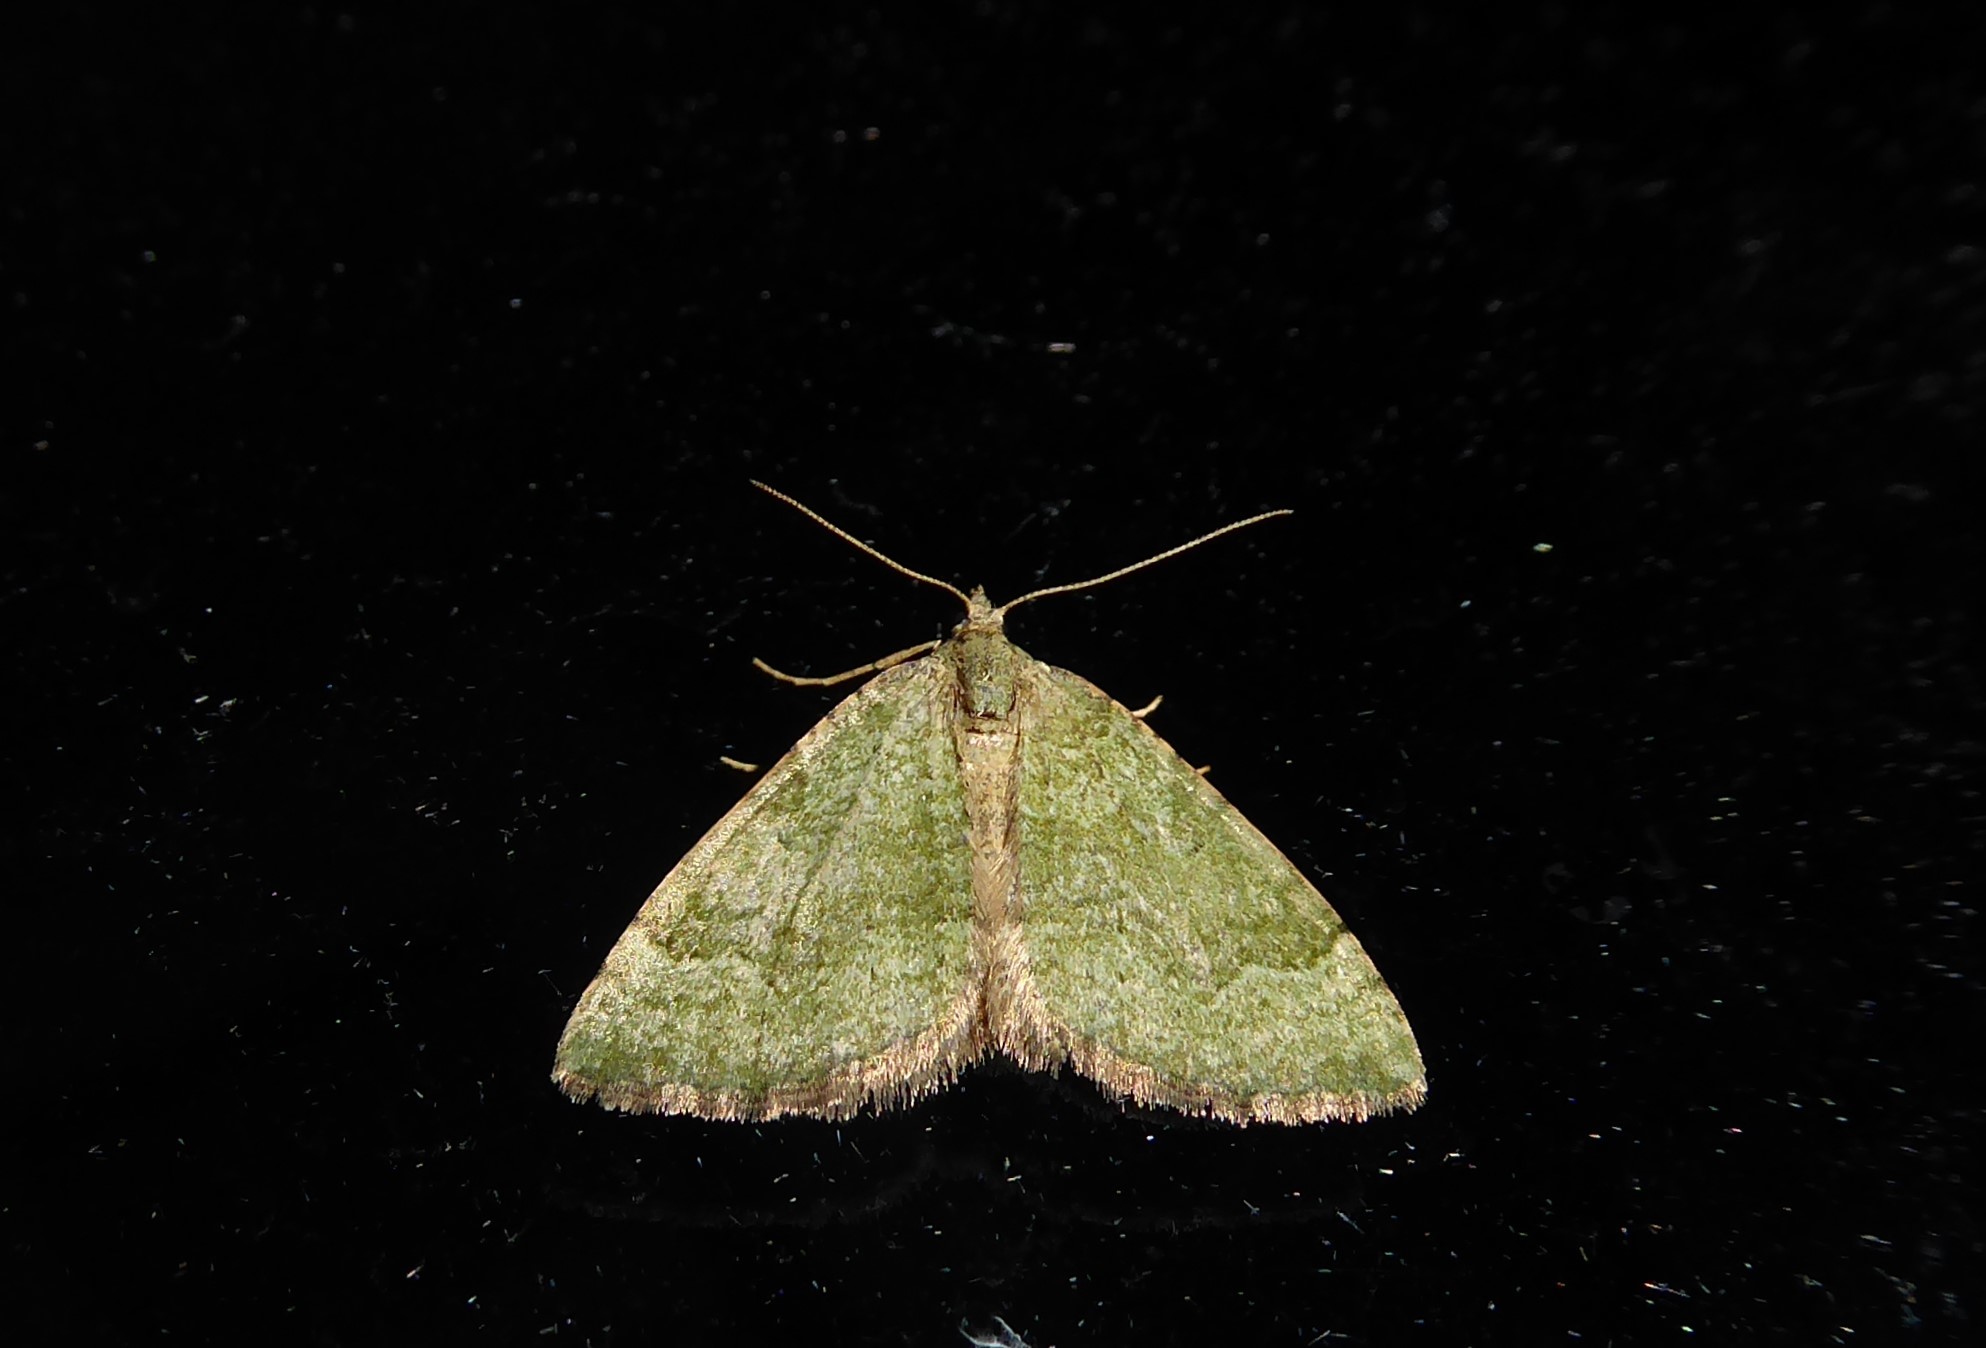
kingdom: Animalia
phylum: Arthropoda
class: Insecta
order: Lepidoptera
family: Geometridae
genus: Epyaxa
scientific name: Epyaxa rosearia
